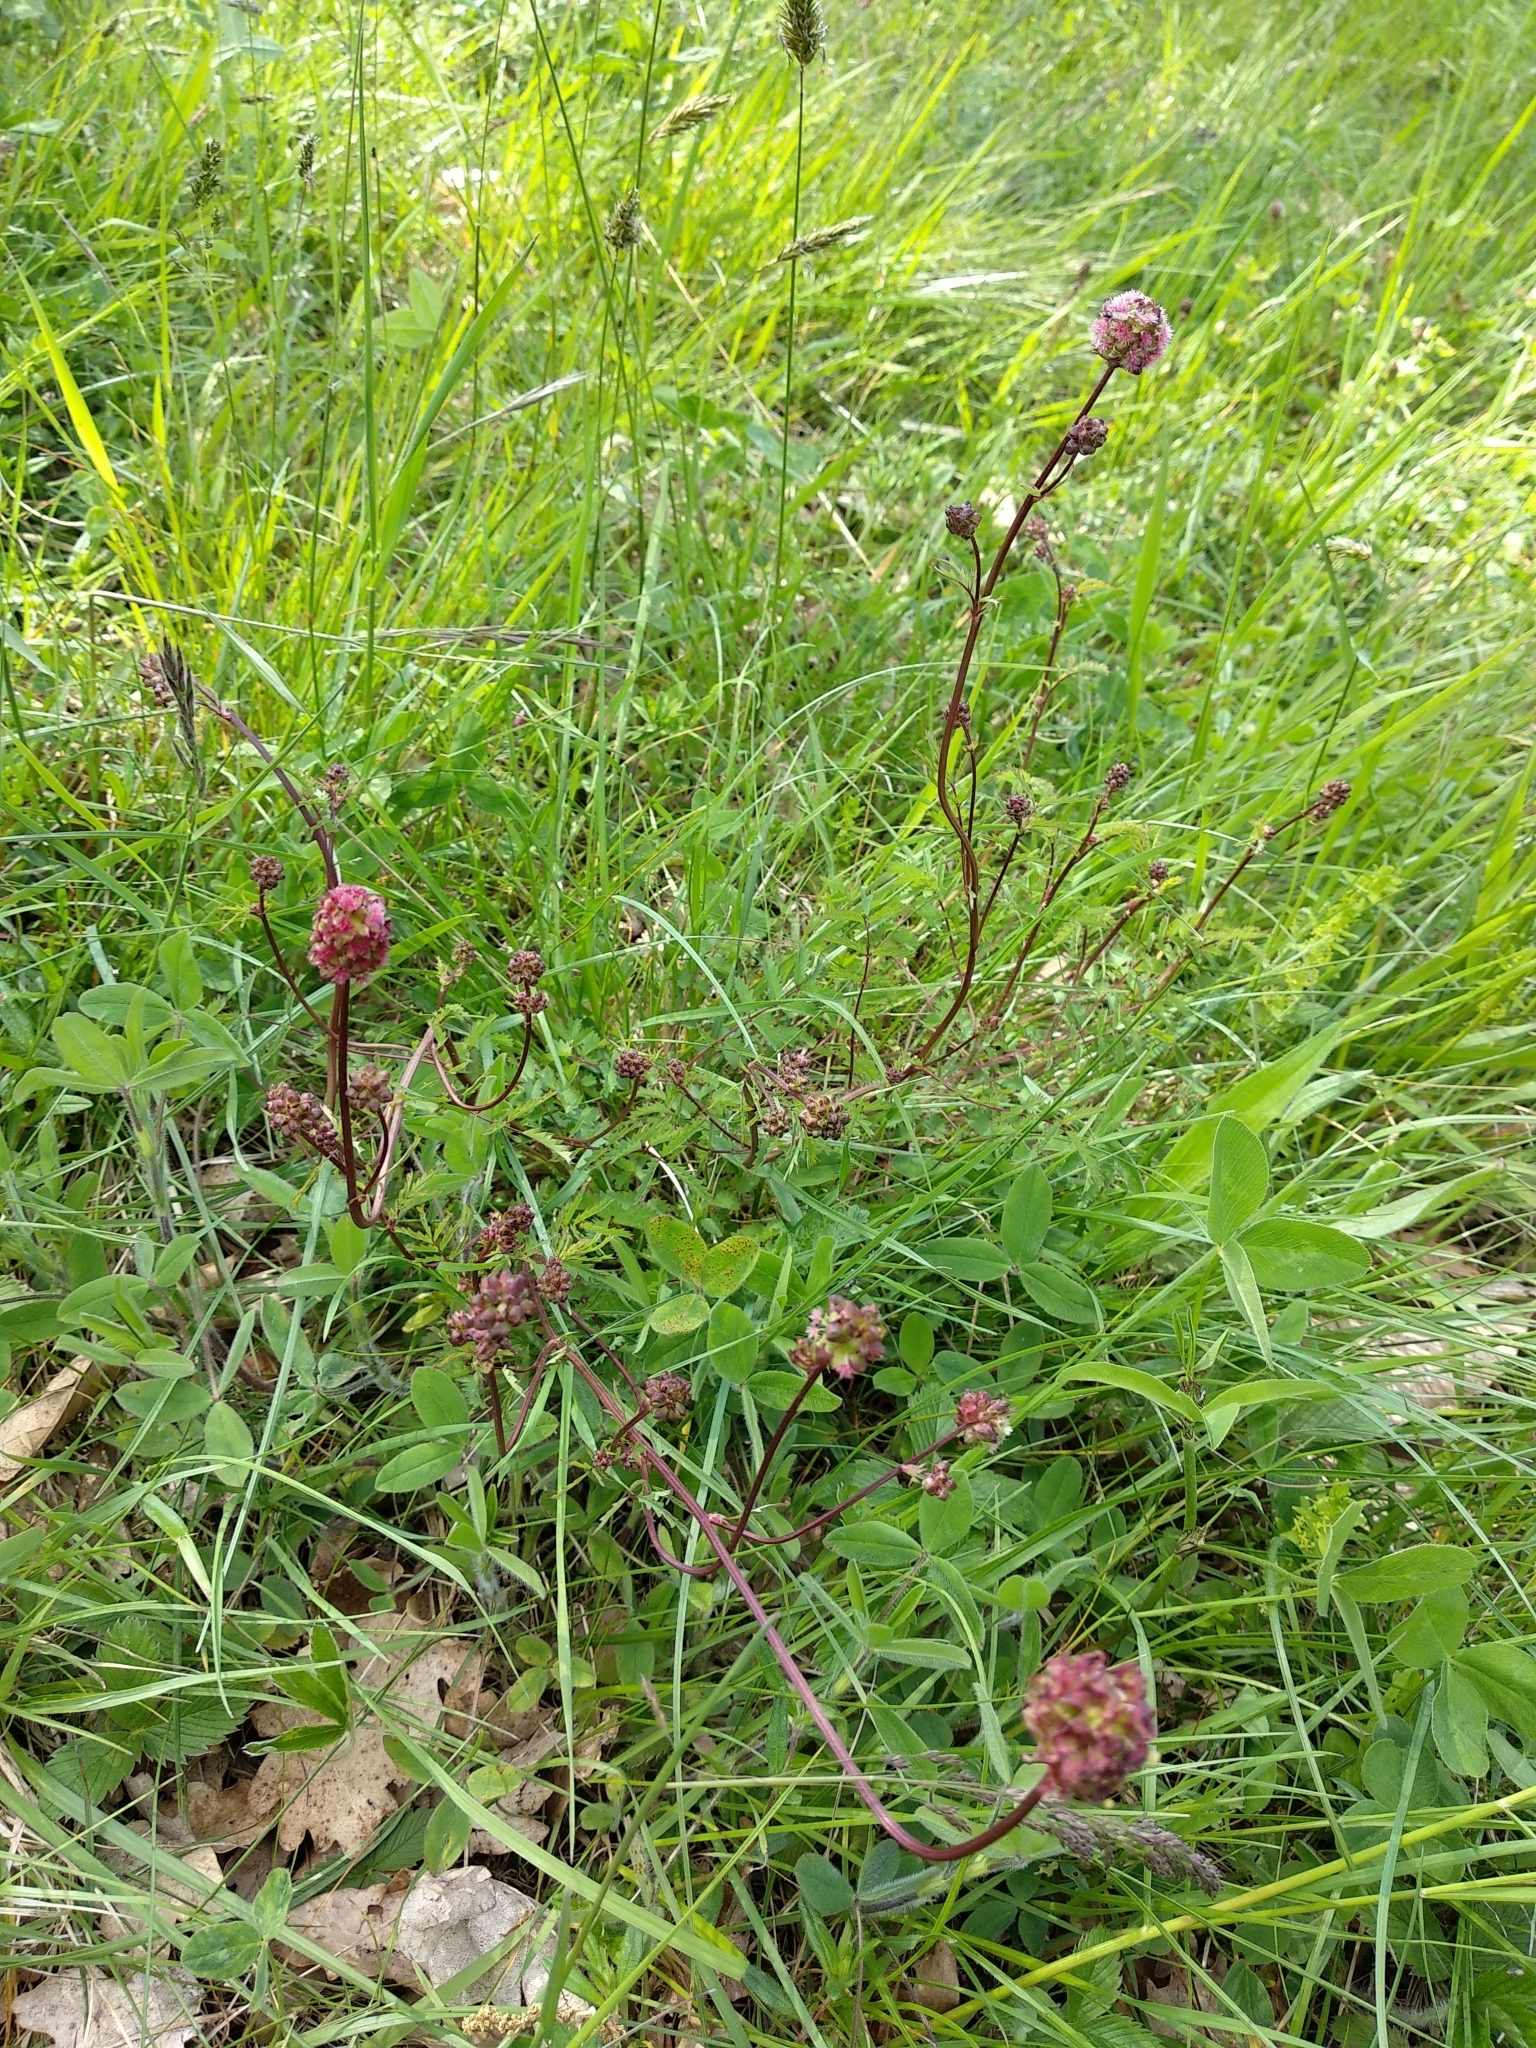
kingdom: Plantae
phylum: Tracheophyta
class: Magnoliopsida
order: Rosales
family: Rosaceae
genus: Poterium
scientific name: Poterium sanguisorba
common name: Salad burnet
